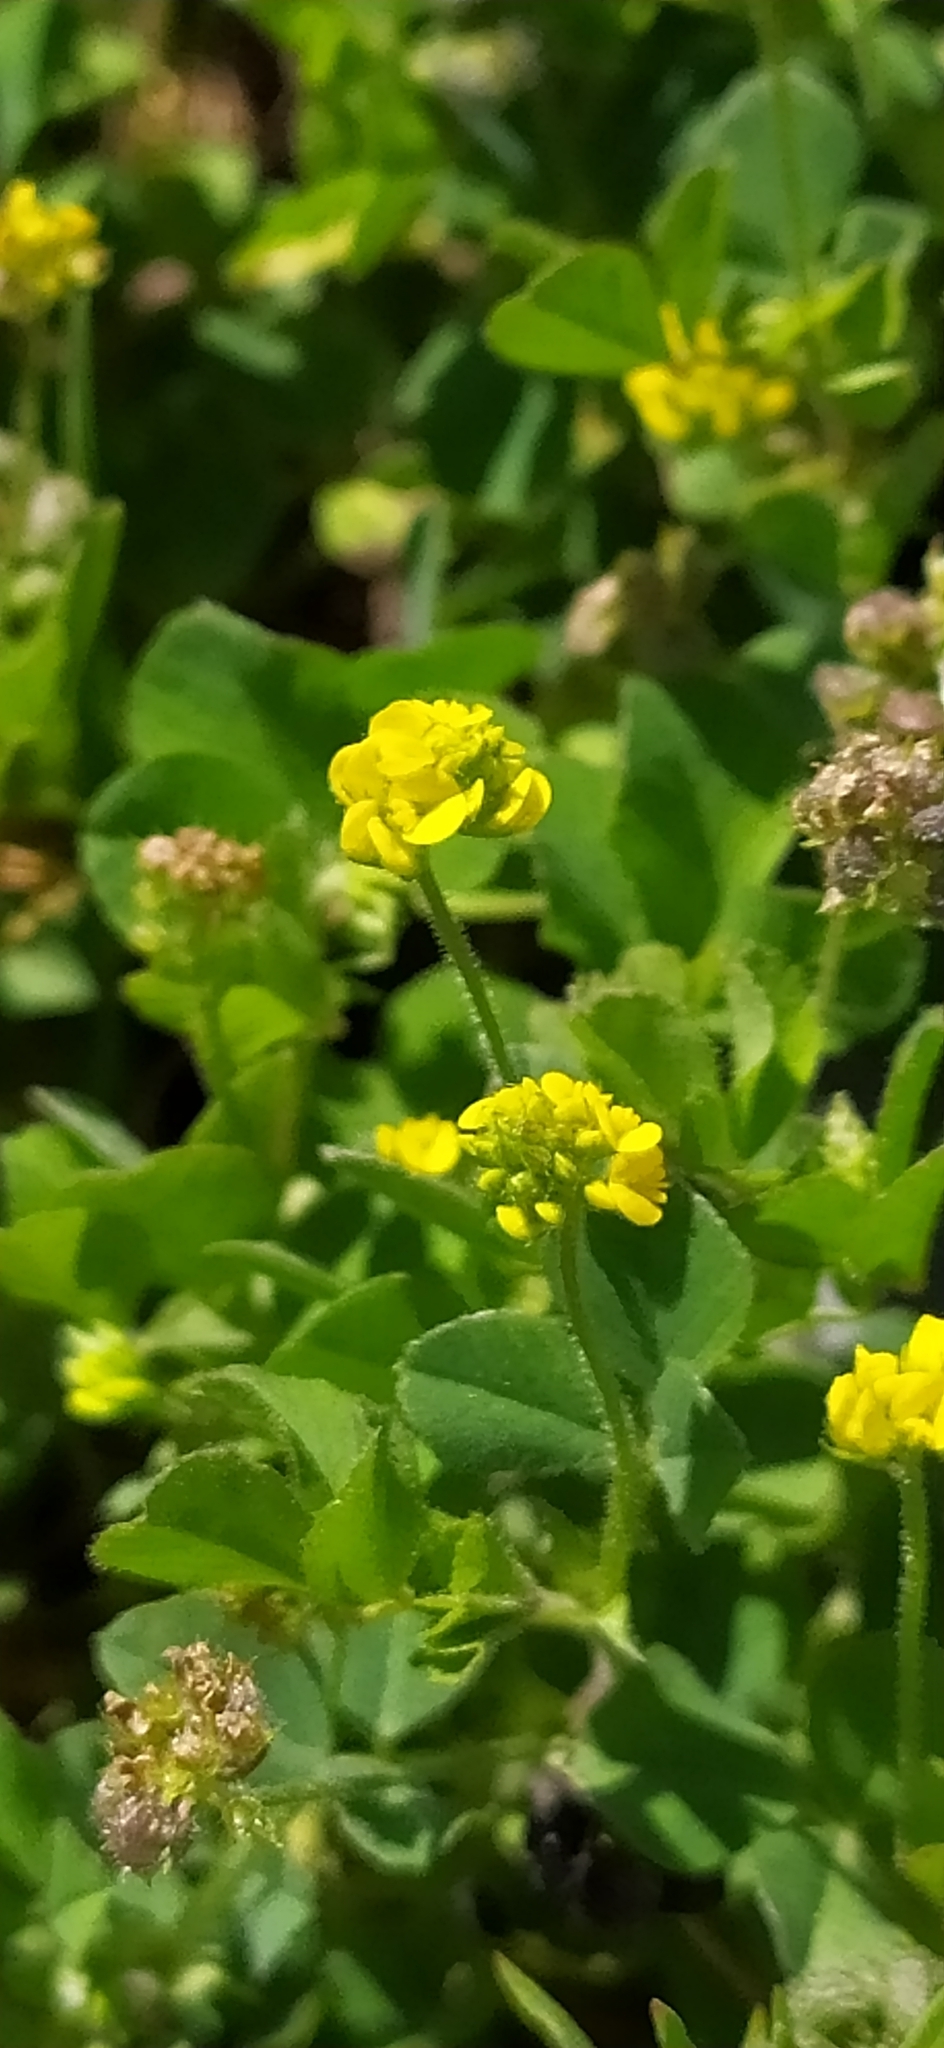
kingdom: Plantae
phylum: Tracheophyta
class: Magnoliopsida
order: Fabales
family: Fabaceae
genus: Medicago
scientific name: Medicago lupulina
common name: Black medick
